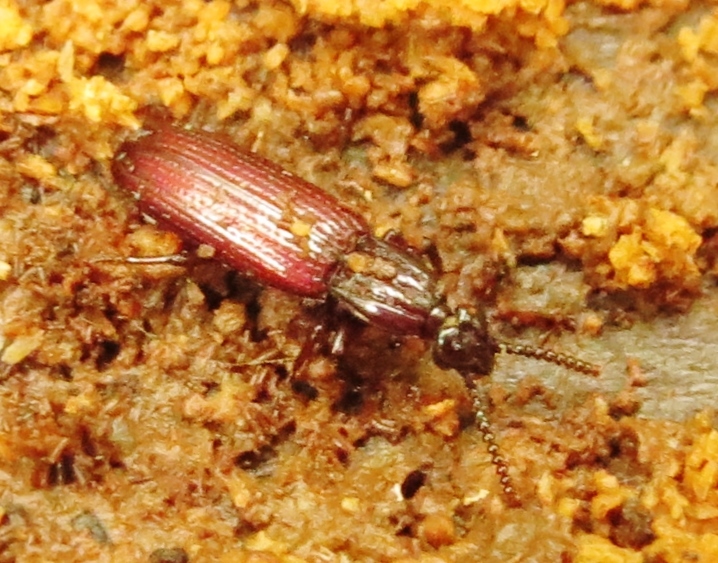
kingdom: Animalia
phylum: Arthropoda
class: Insecta
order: Coleoptera
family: Carabidae
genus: Omoglymmius
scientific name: Omoglymmius americanus
